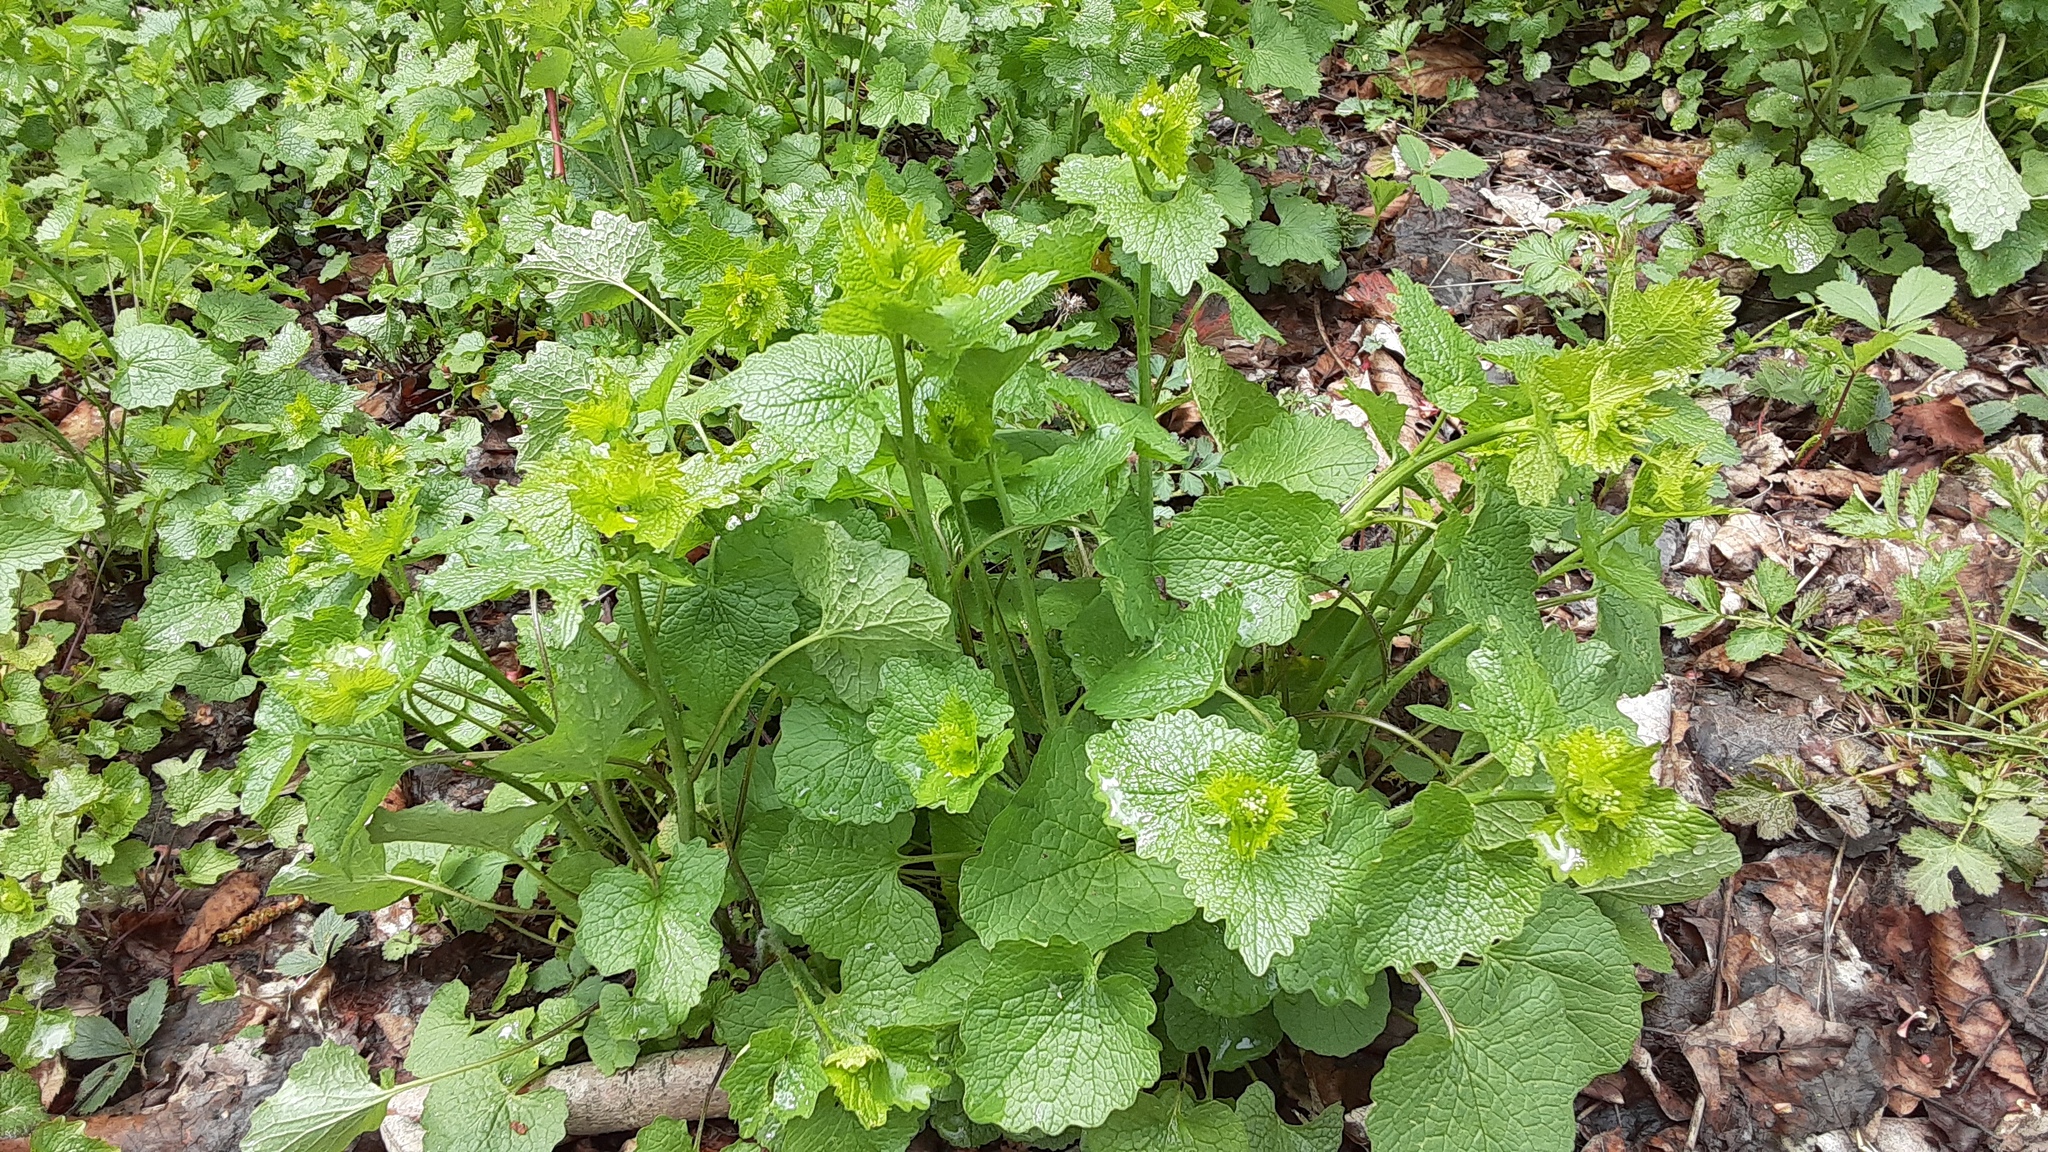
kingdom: Plantae
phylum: Tracheophyta
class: Magnoliopsida
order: Brassicales
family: Brassicaceae
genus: Alliaria
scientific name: Alliaria petiolata
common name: Garlic mustard
